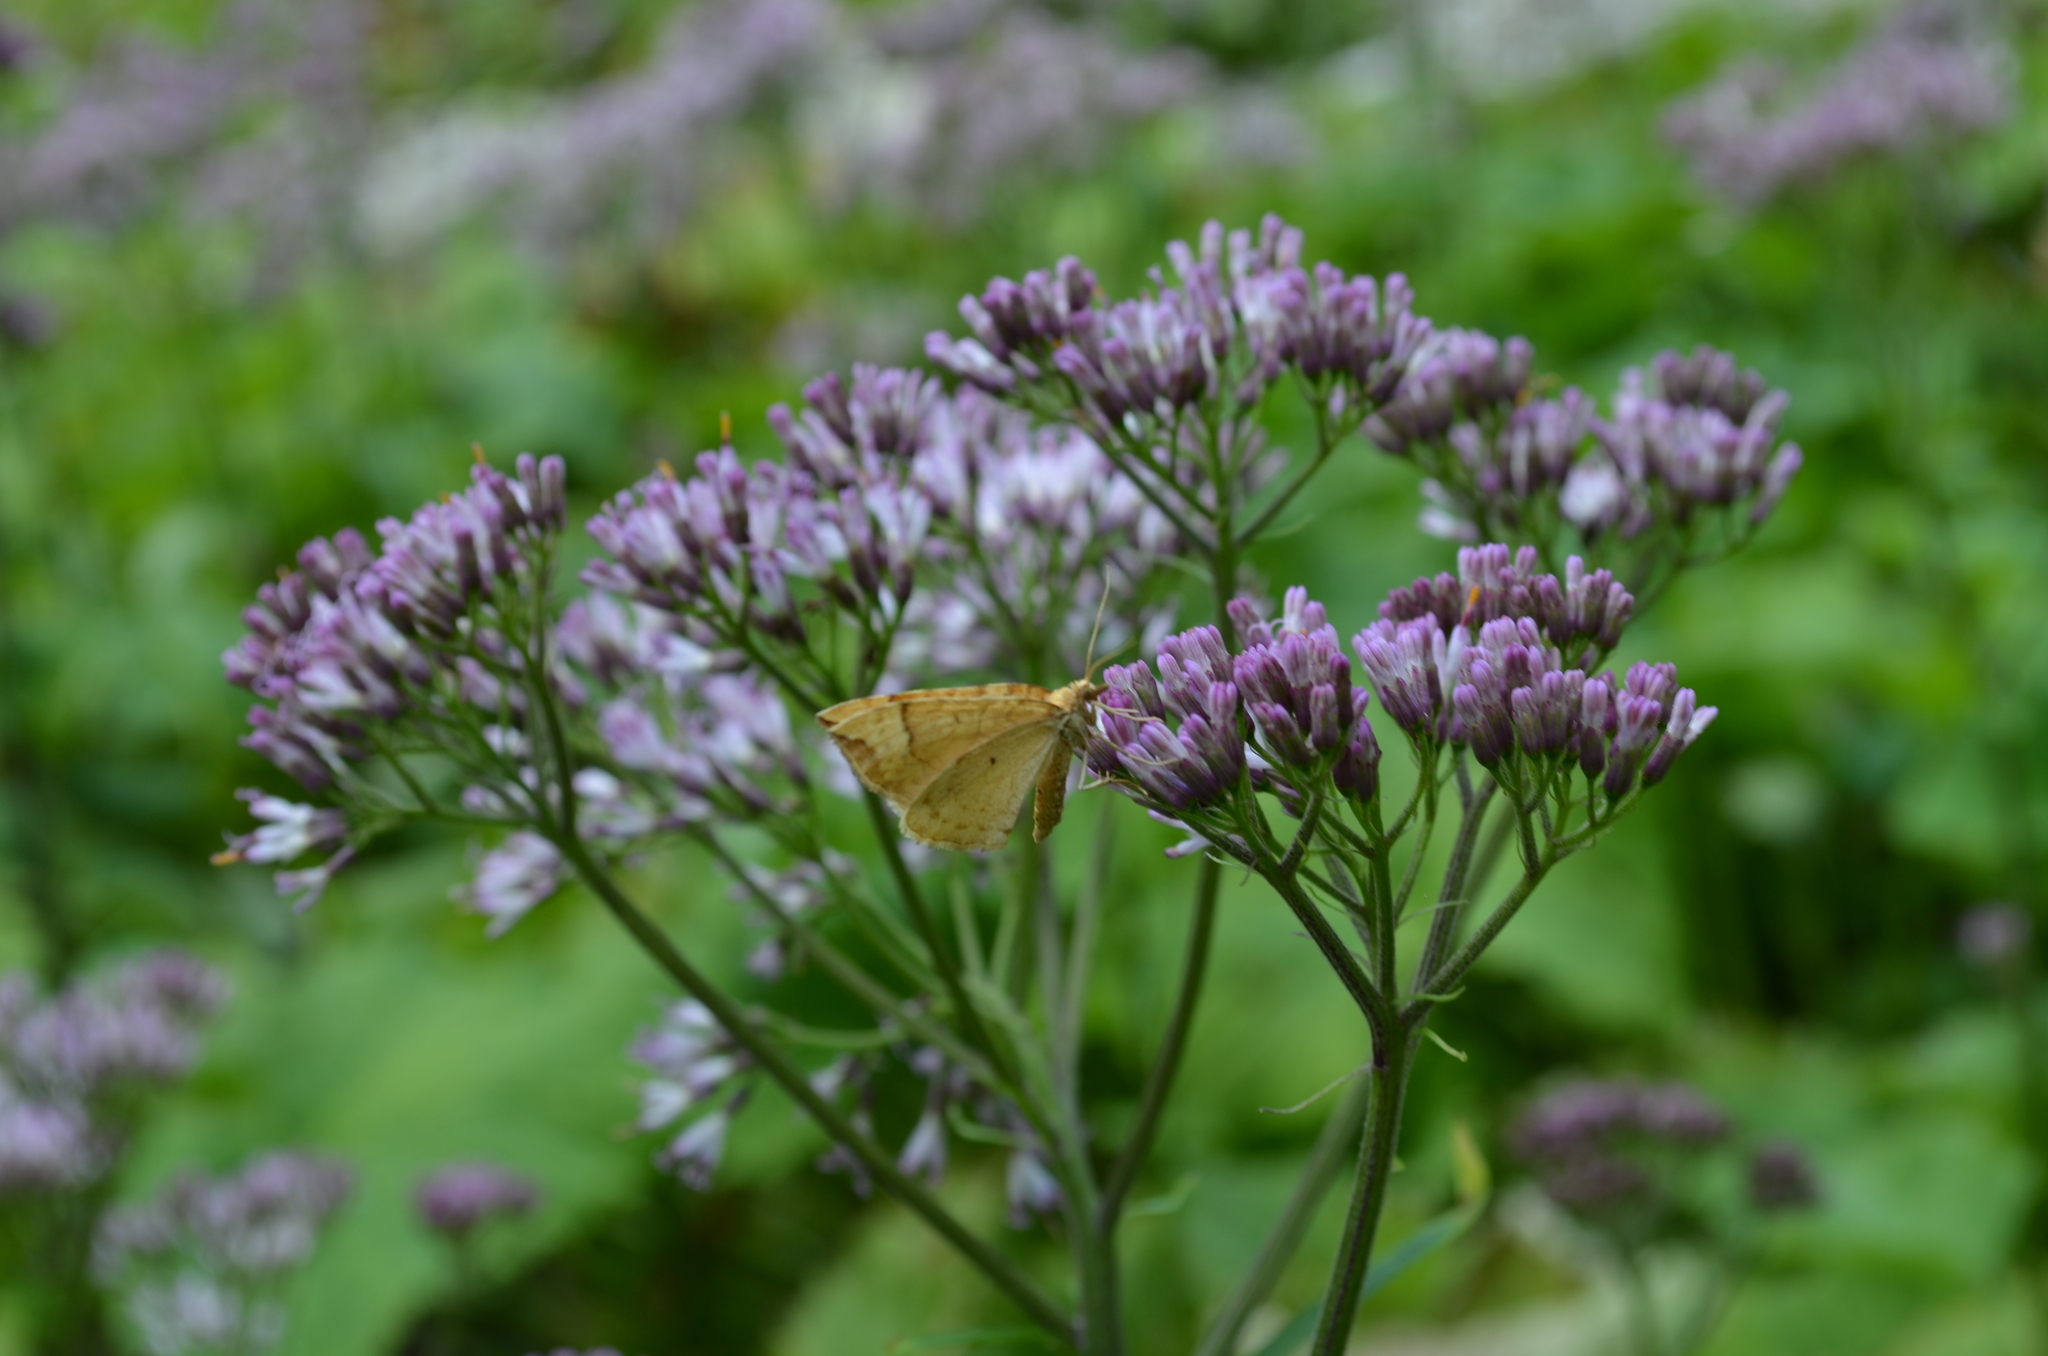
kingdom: Animalia
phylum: Arthropoda
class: Insecta
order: Lepidoptera
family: Geometridae
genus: Eulithis
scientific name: Eulithis populata
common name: Northern spinach
